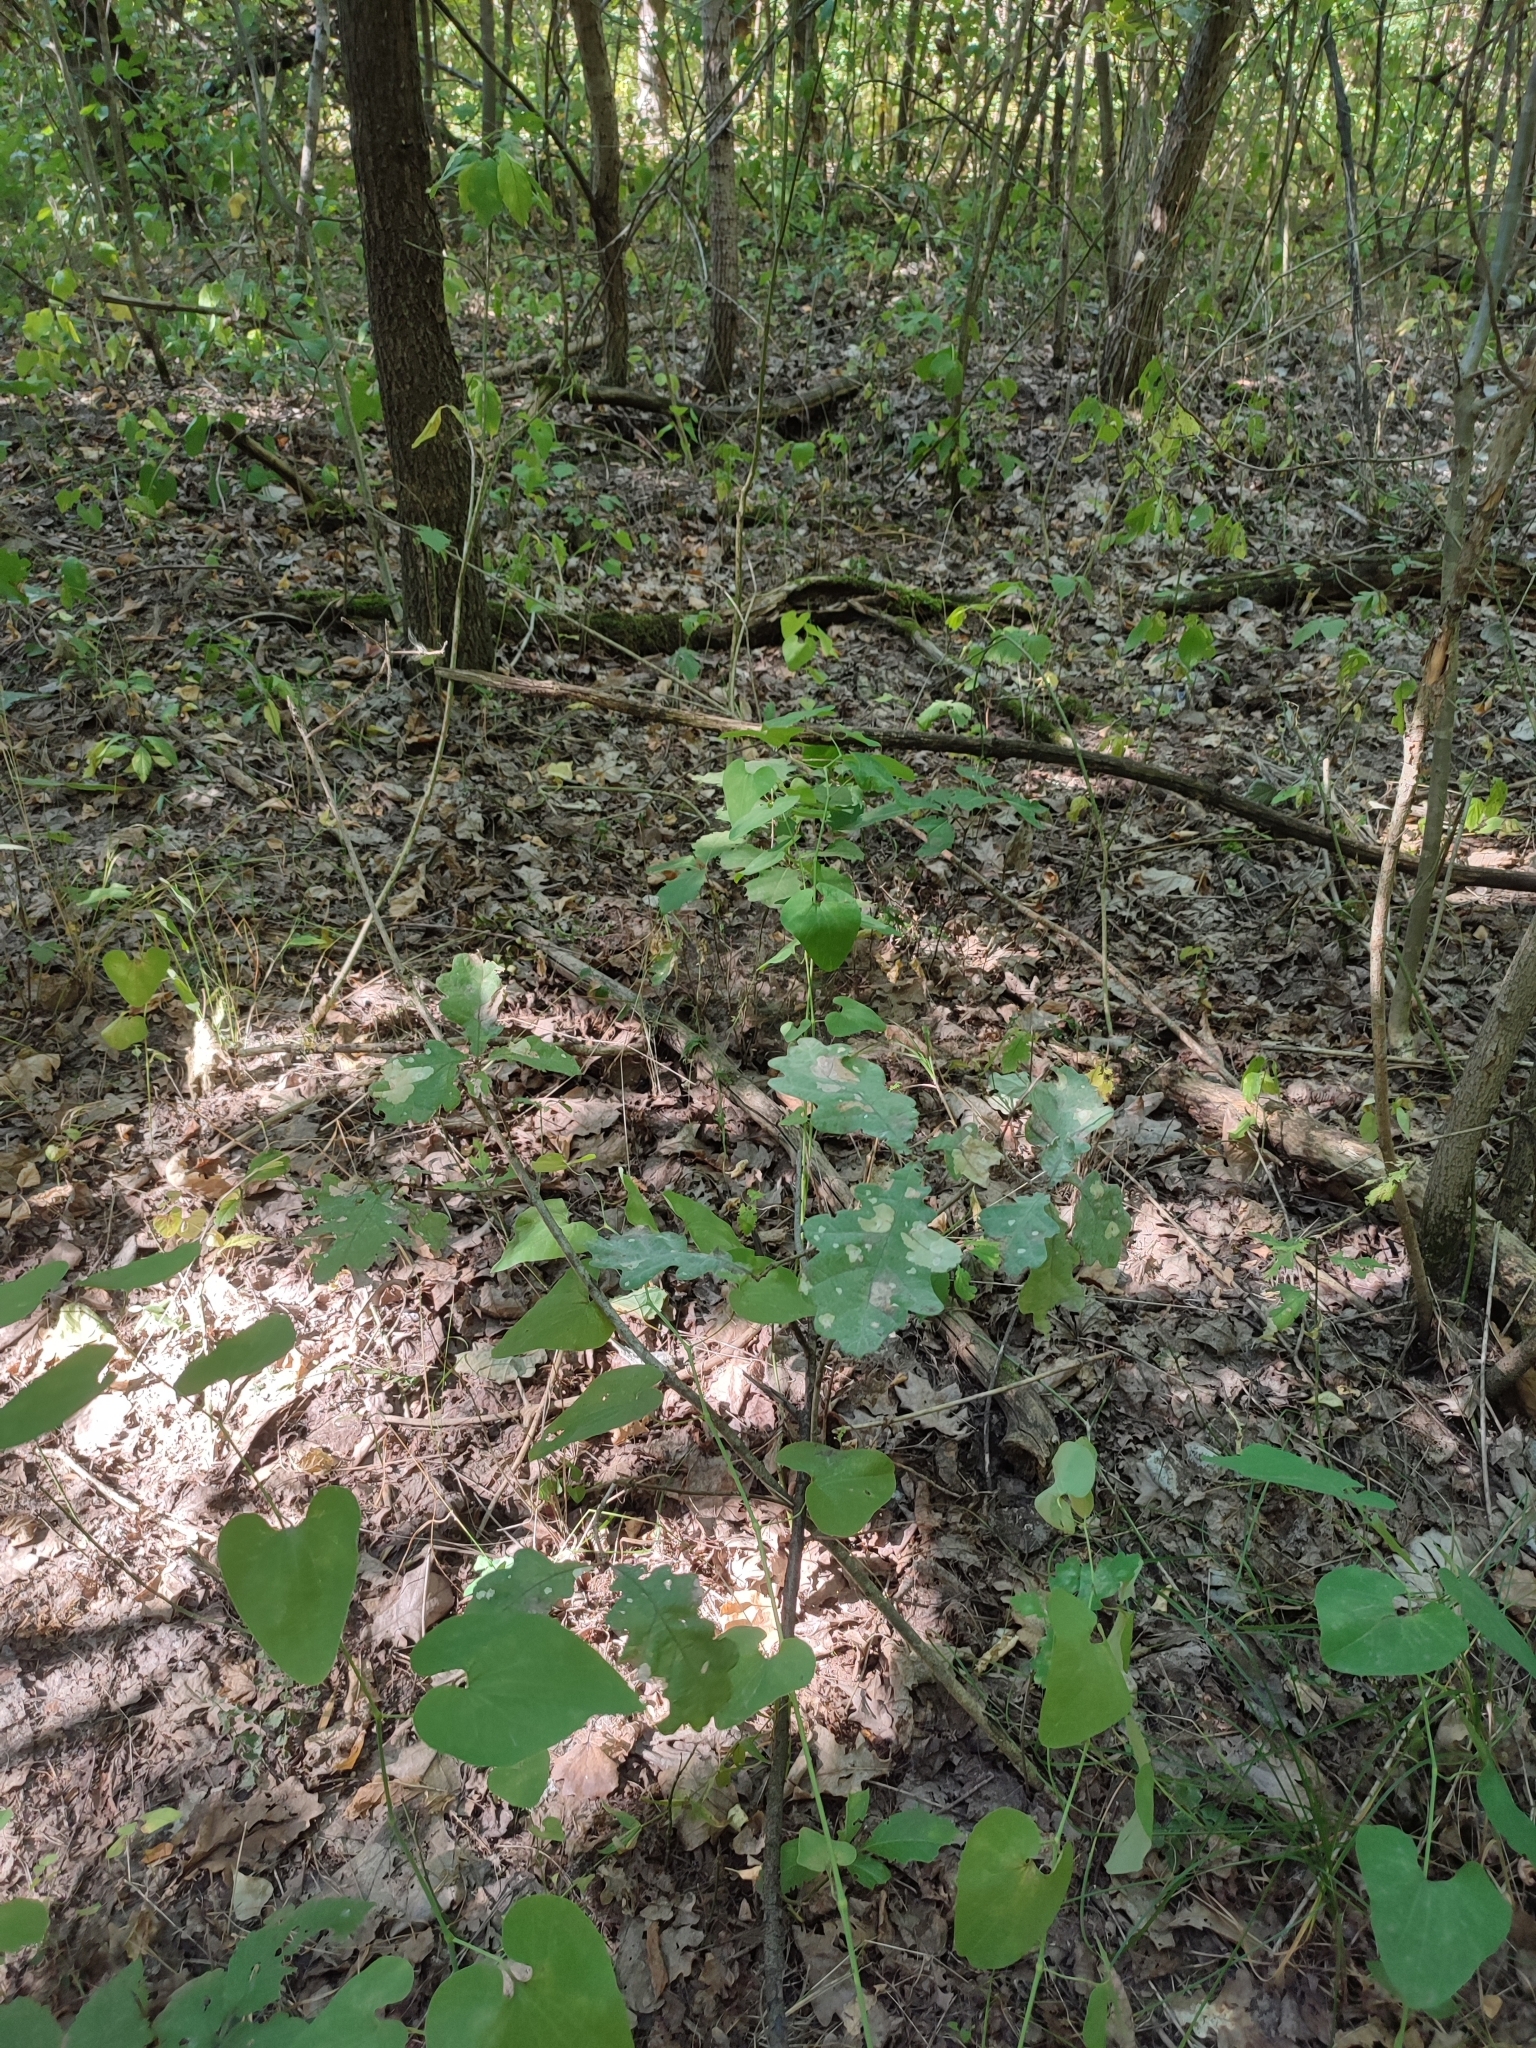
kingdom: Plantae
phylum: Tracheophyta
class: Magnoliopsida
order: Fagales
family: Fagaceae
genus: Quercus
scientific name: Quercus robur
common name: Pedunculate oak
